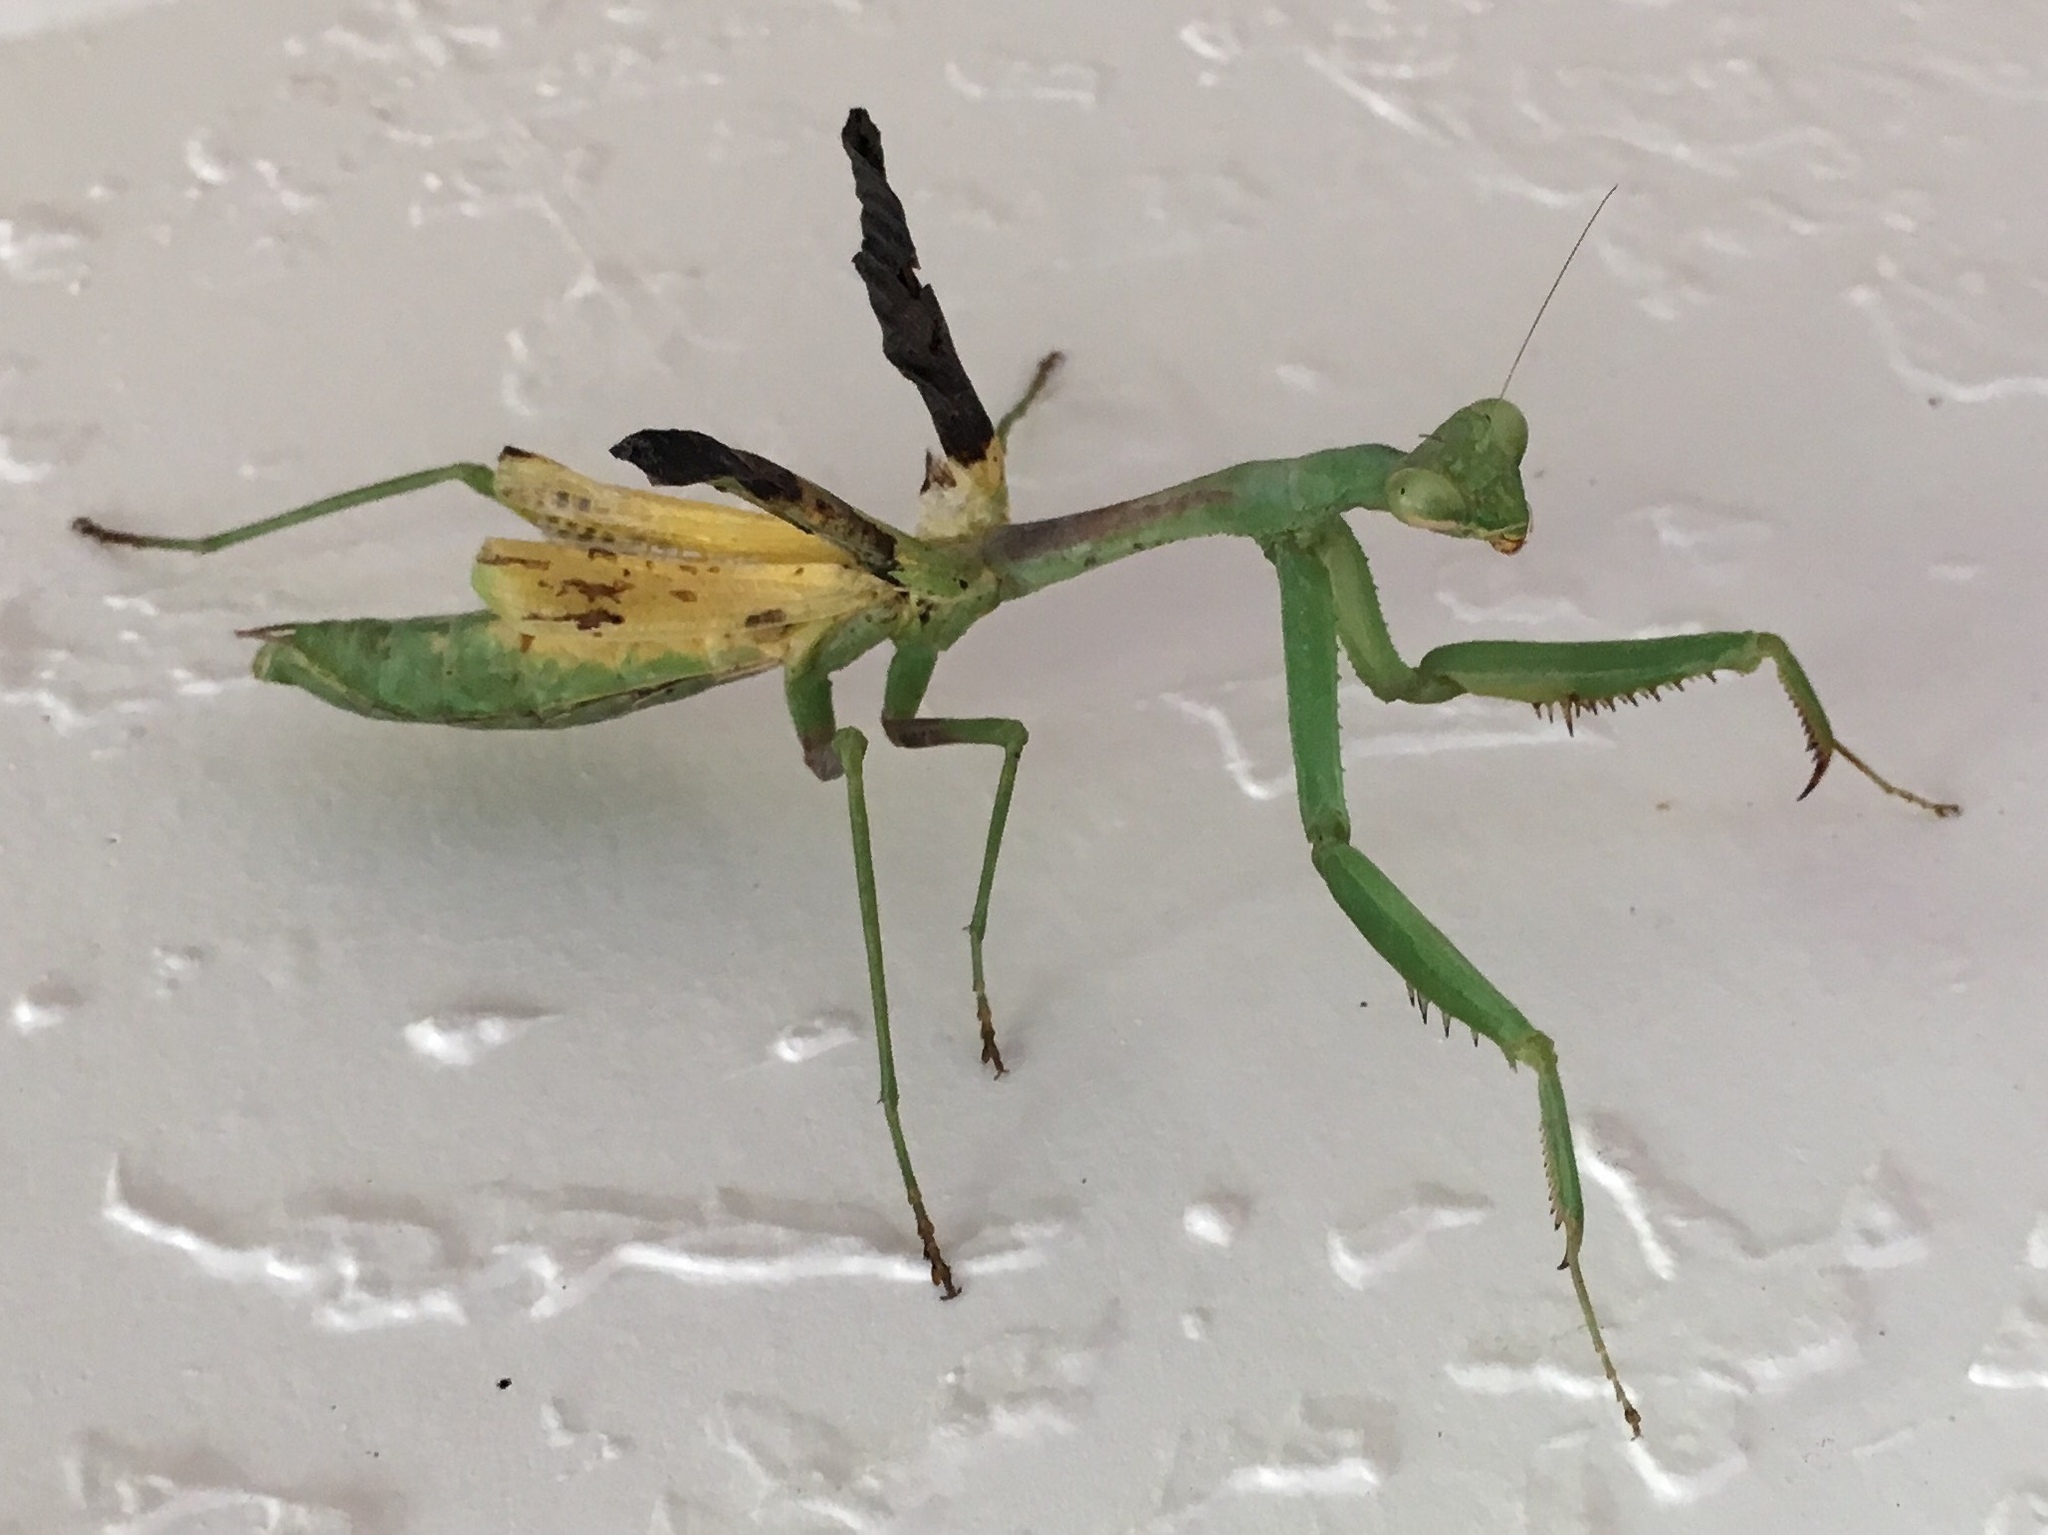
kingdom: Animalia
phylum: Arthropoda
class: Insecta
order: Mantodea
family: Mantidae
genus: Stagmomantis
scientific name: Stagmomantis carolina
